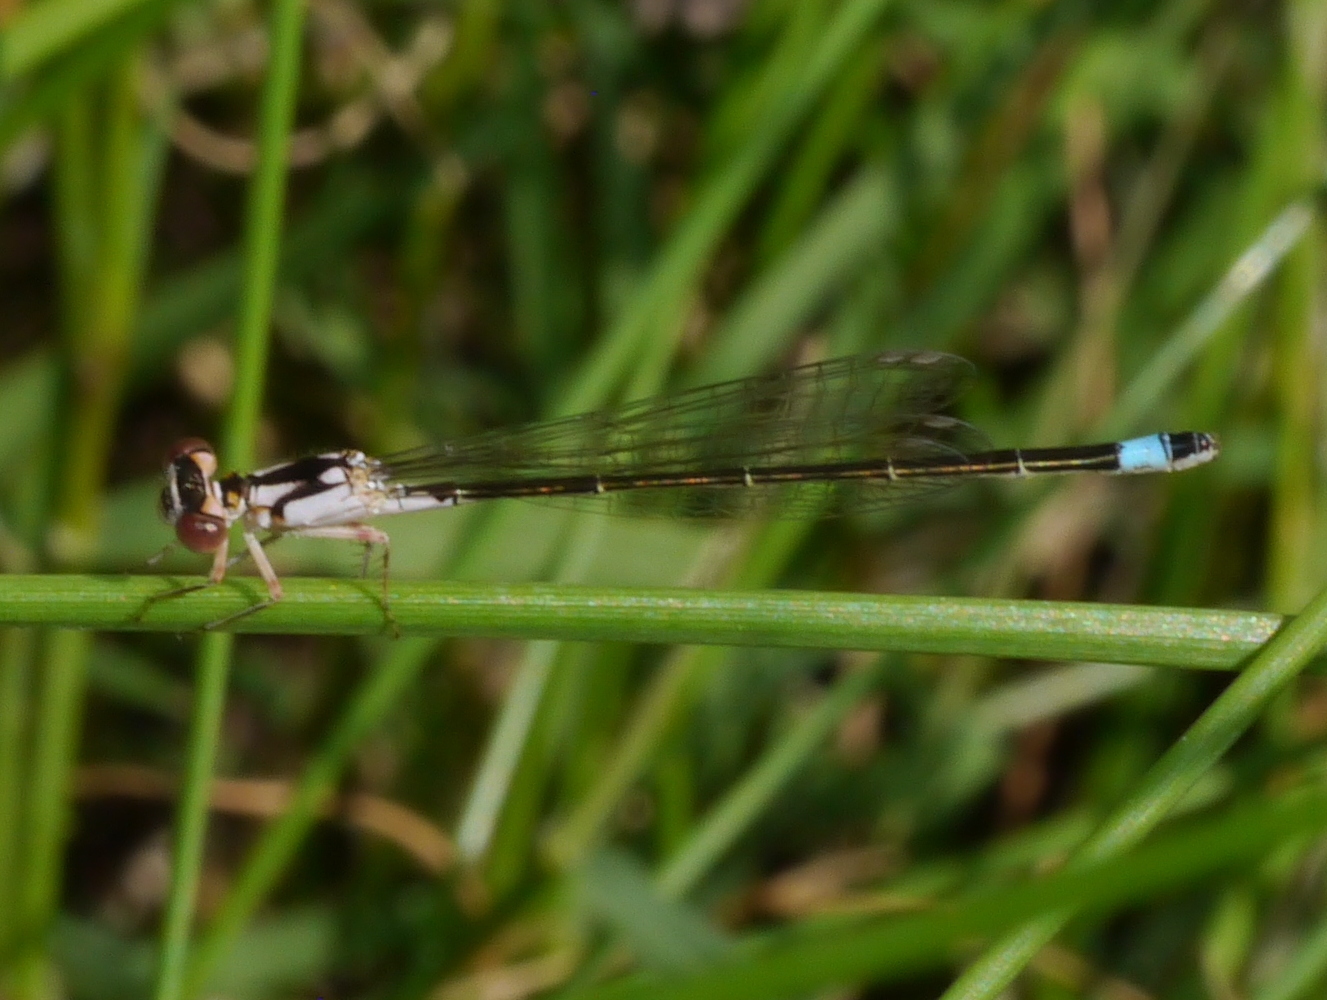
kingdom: Animalia
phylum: Arthropoda
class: Insecta
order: Odonata
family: Coenagrionidae
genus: Ischnura
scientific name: Ischnura cervula
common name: Pacific forktail
